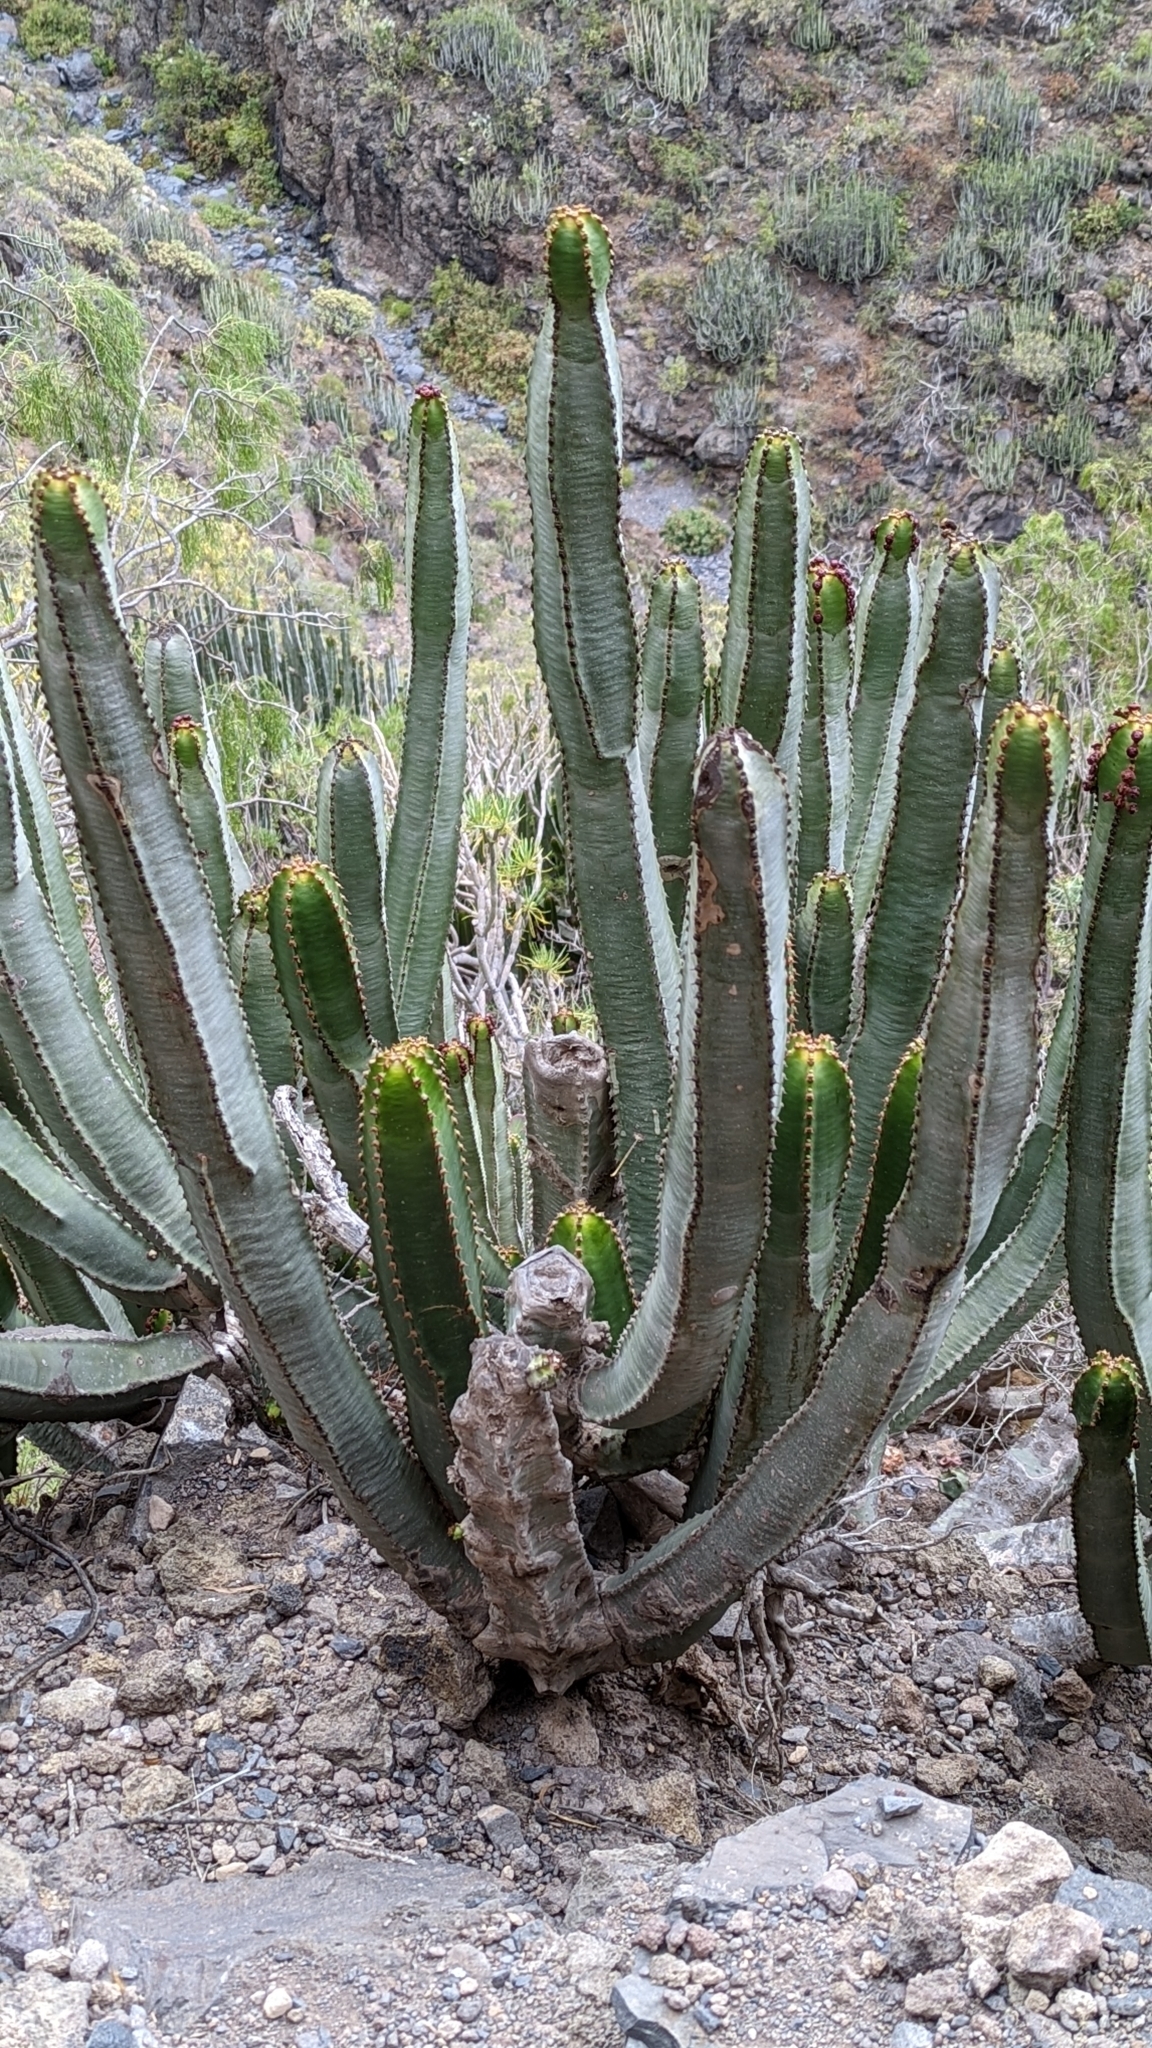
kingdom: Plantae
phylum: Tracheophyta
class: Magnoliopsida
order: Malpighiales
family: Euphorbiaceae
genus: Euphorbia
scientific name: Euphorbia canariensis
